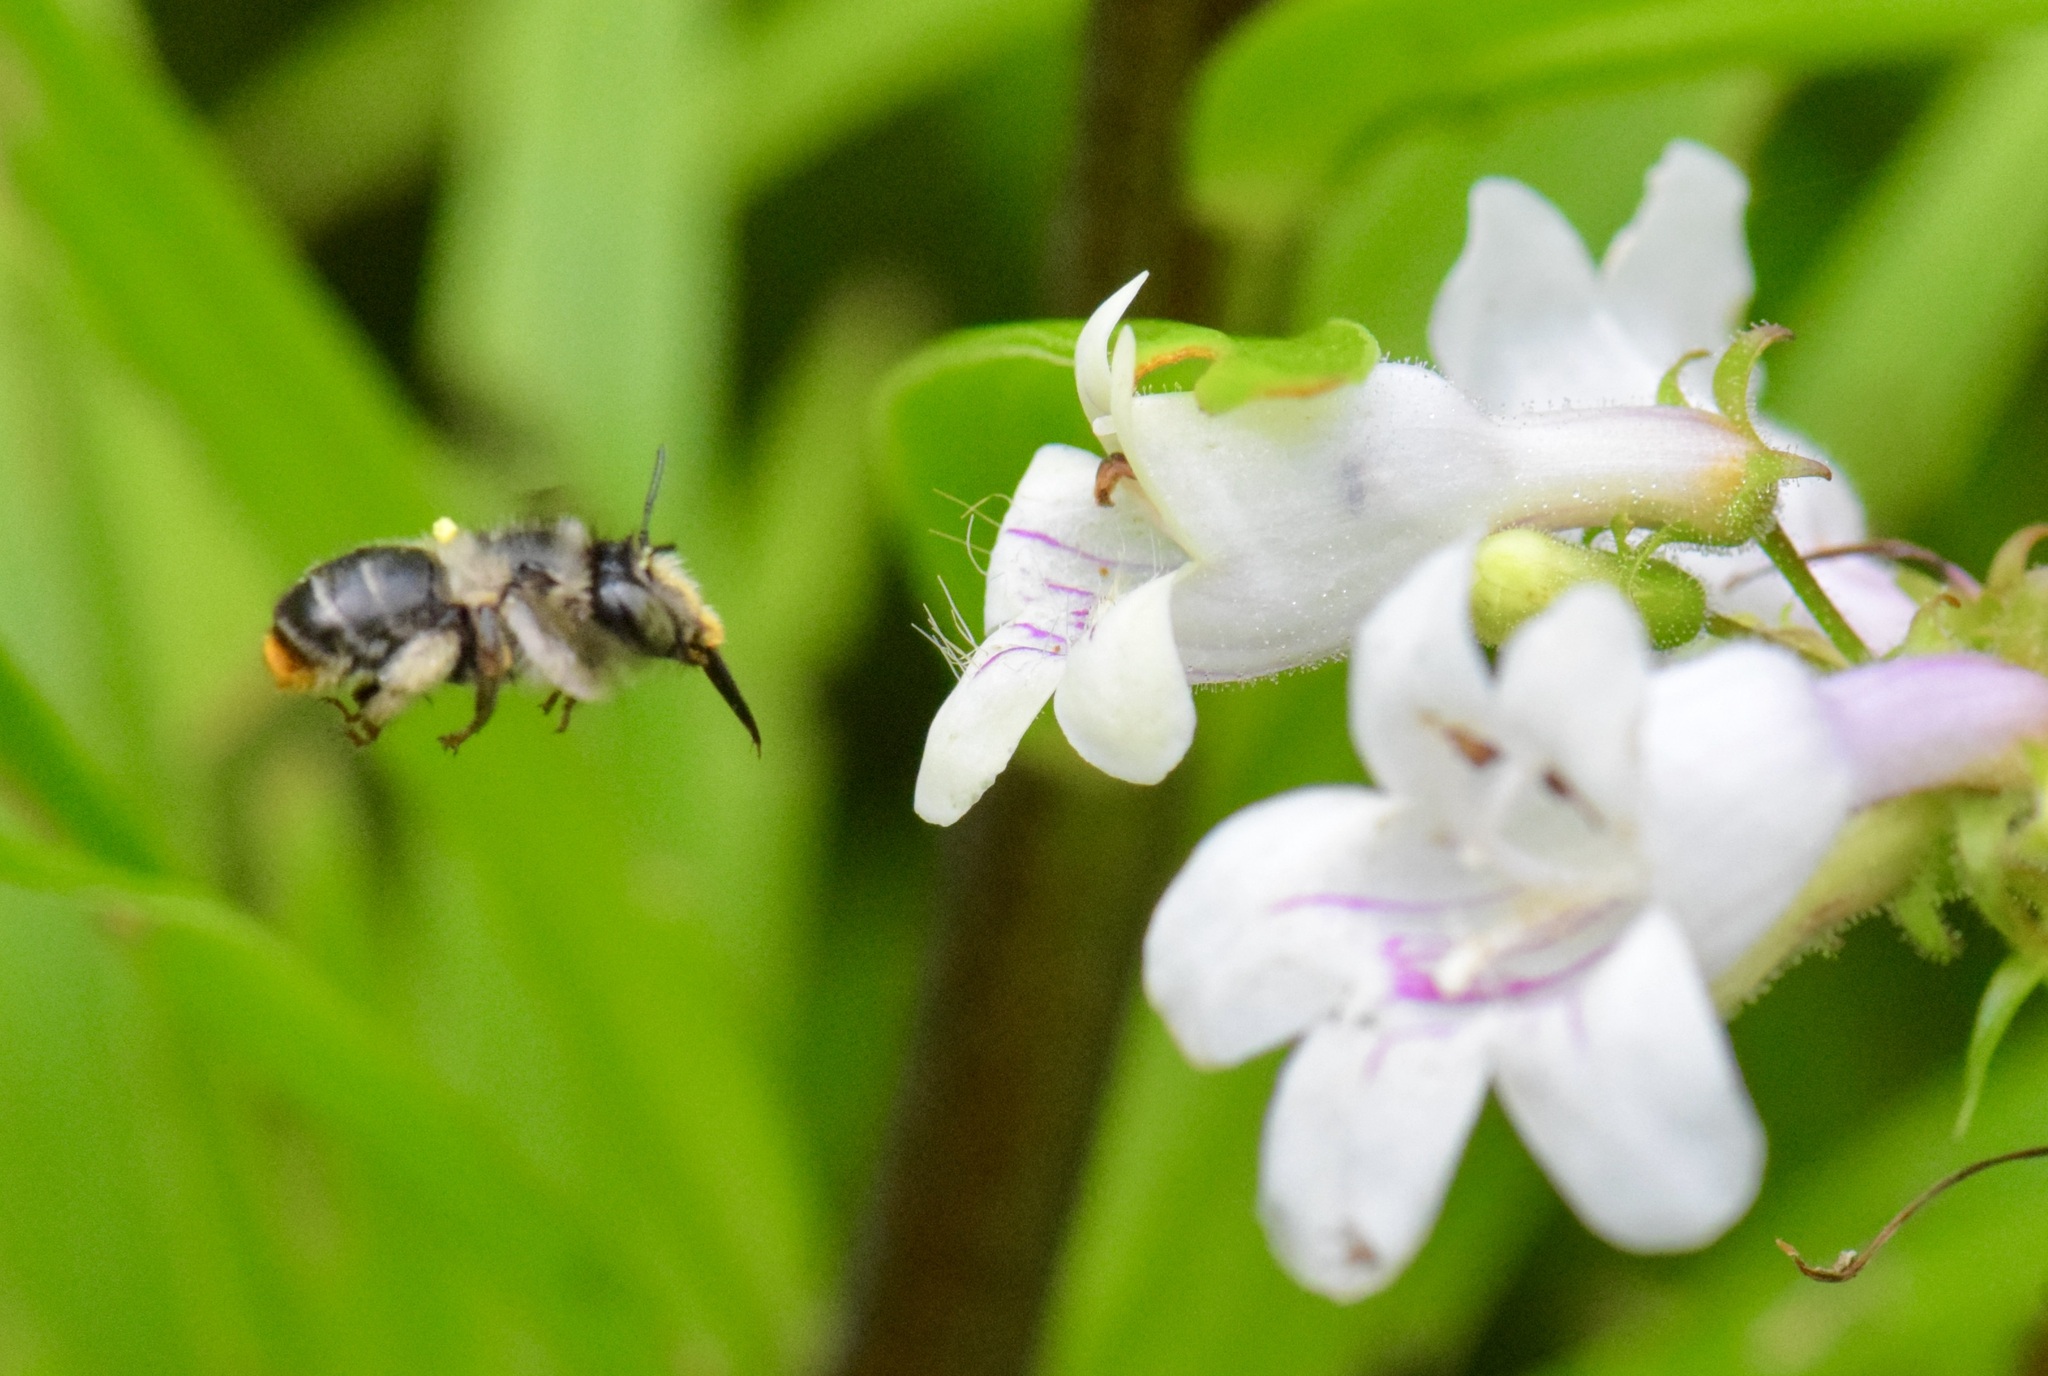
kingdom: Animalia
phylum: Arthropoda
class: Insecta
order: Hymenoptera
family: Apidae
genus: Anthophora
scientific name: Anthophora terminalis
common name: Orange-tipped wood-digger bee
